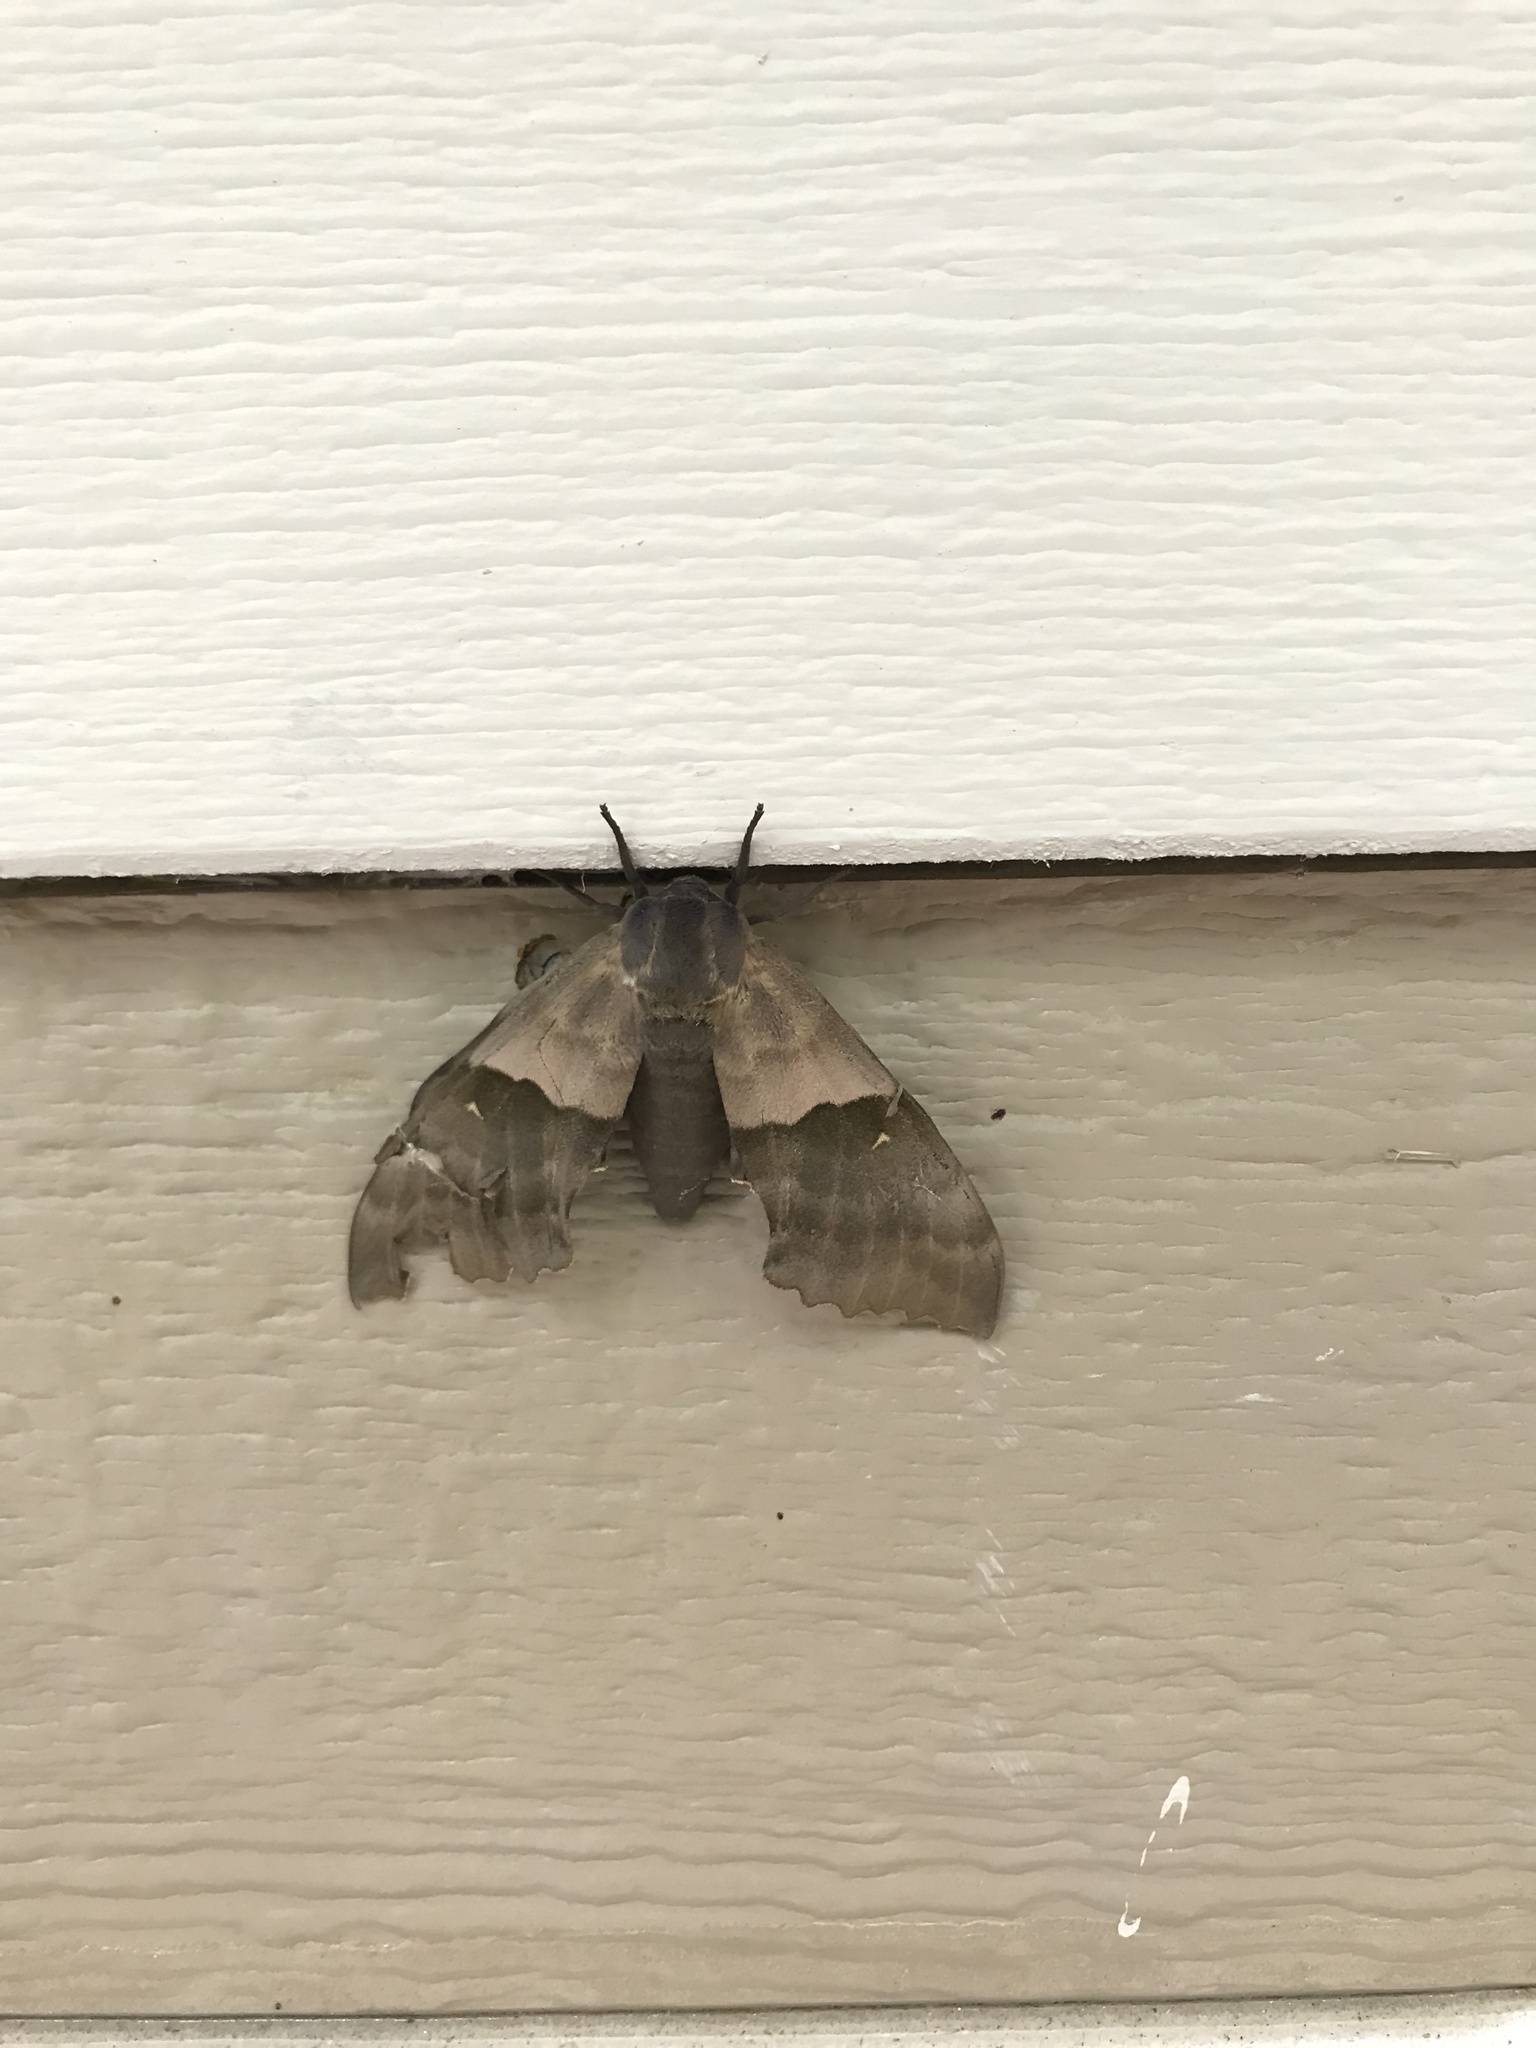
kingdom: Animalia
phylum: Arthropoda
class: Insecta
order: Lepidoptera
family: Sphingidae
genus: Pachysphinx
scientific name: Pachysphinx modesta
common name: Big poplar sphinx
